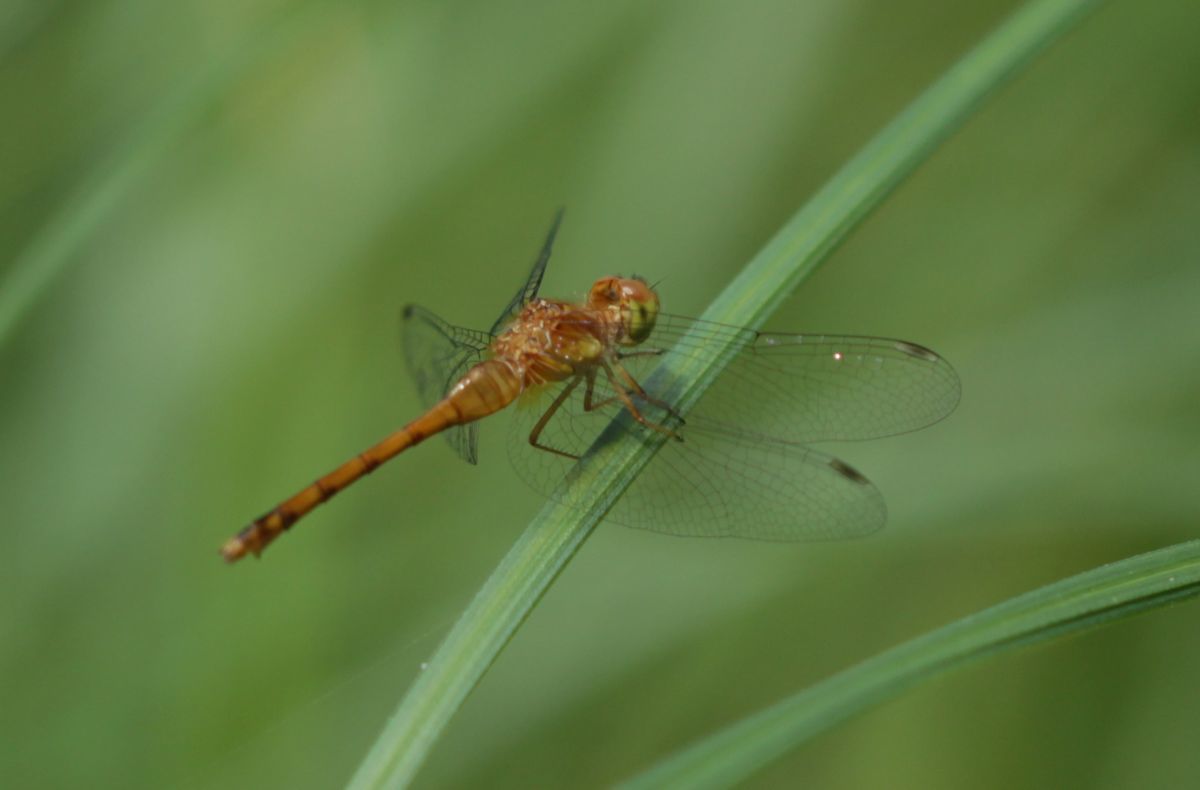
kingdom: Animalia
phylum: Arthropoda
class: Insecta
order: Odonata
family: Libellulidae
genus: Sympetrum
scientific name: Sympetrum vicinum
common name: Autumn meadowhawk
